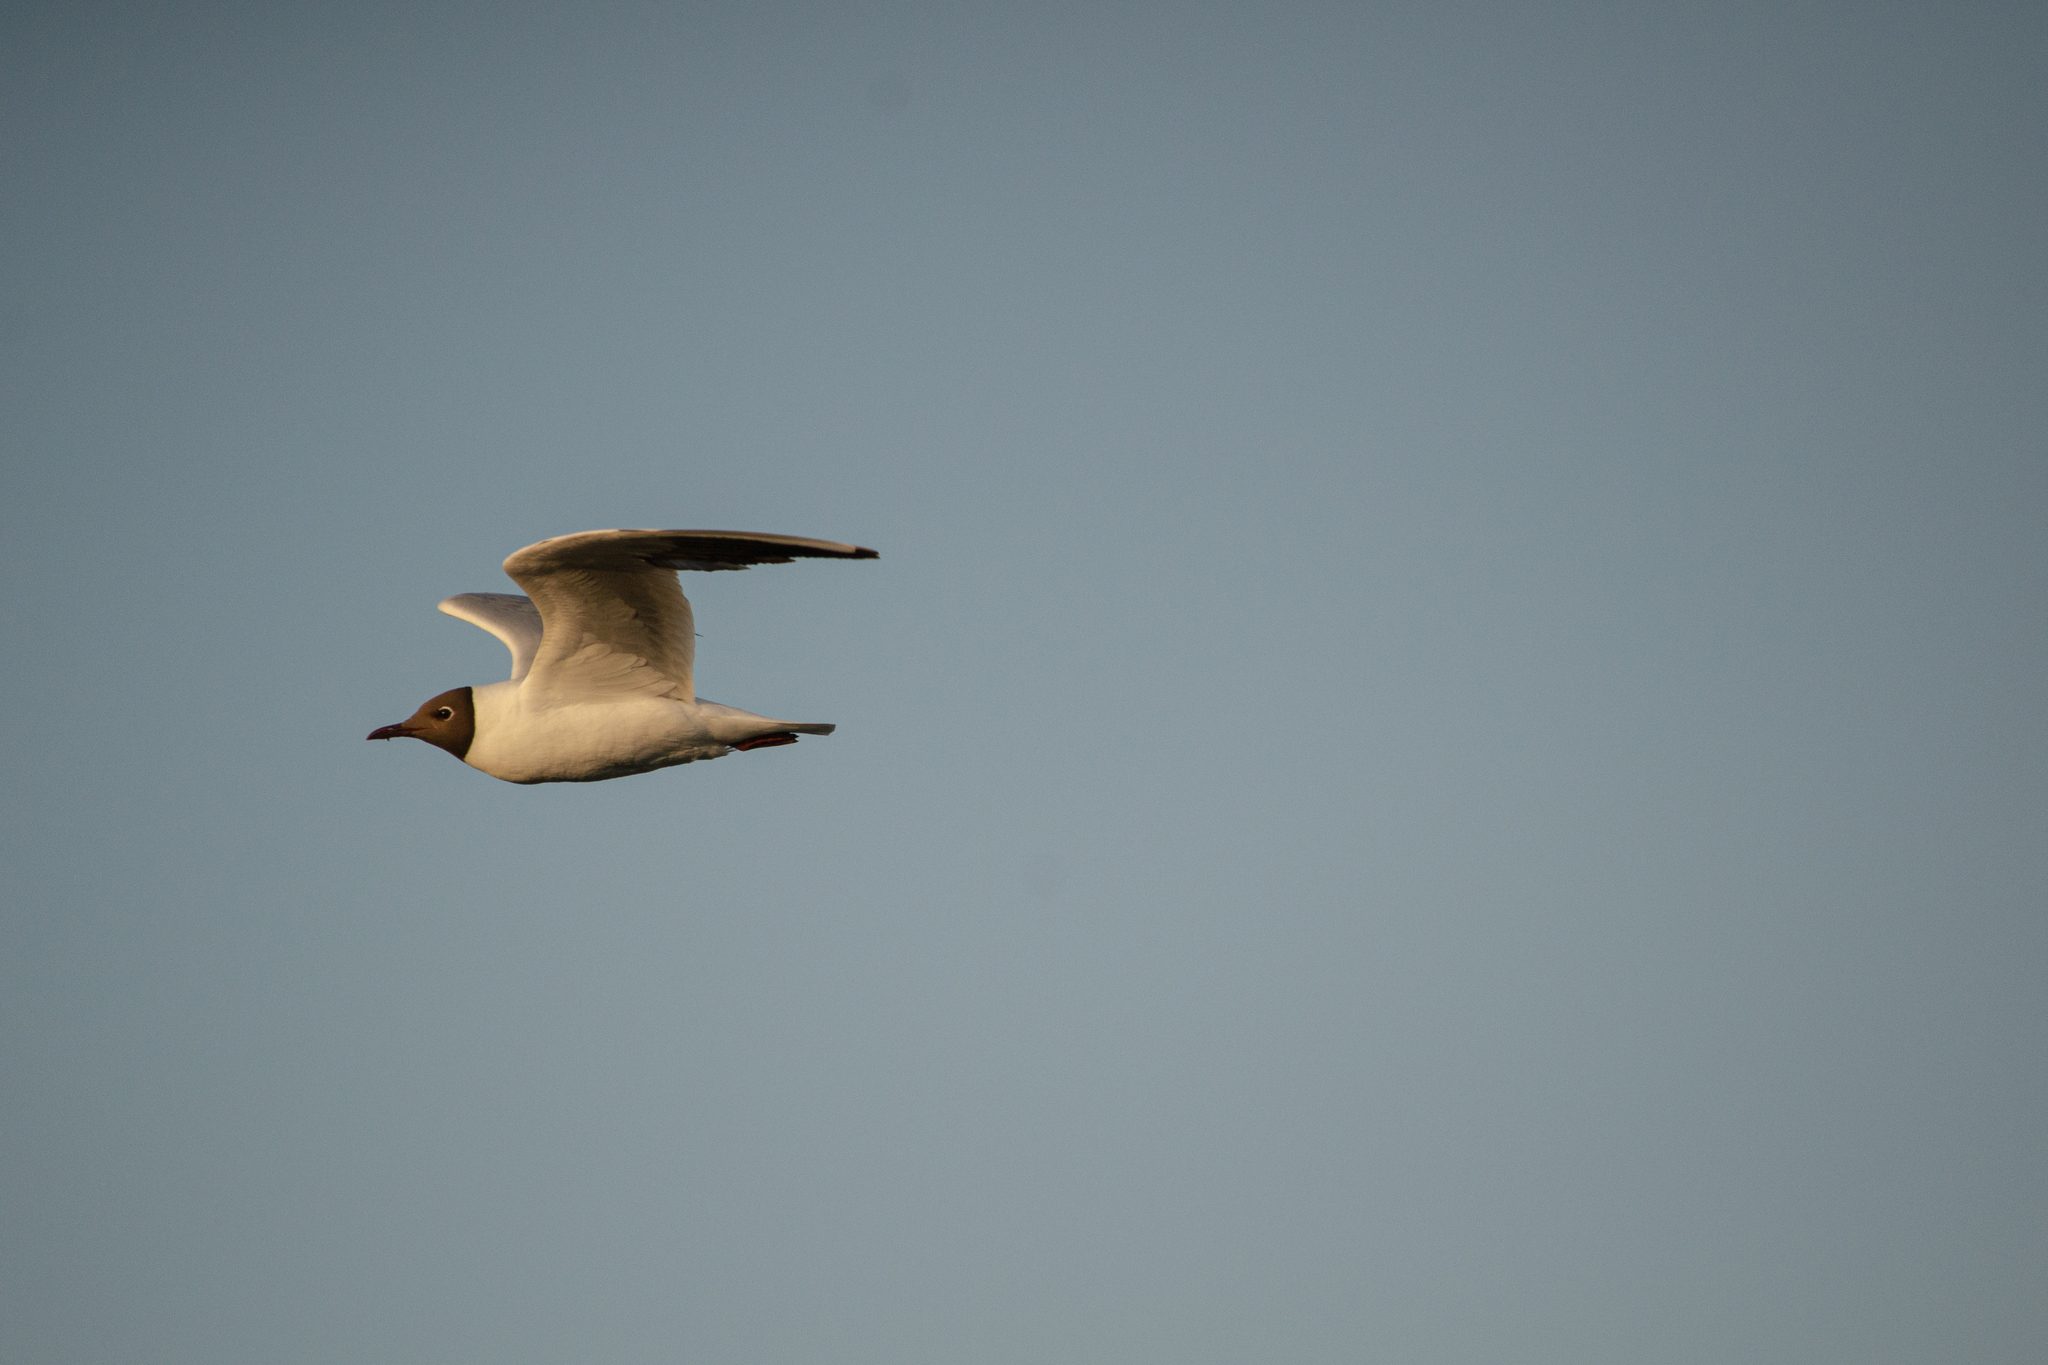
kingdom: Animalia
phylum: Chordata
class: Aves
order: Charadriiformes
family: Laridae
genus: Chroicocephalus
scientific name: Chroicocephalus ridibundus
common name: Black-headed gull
